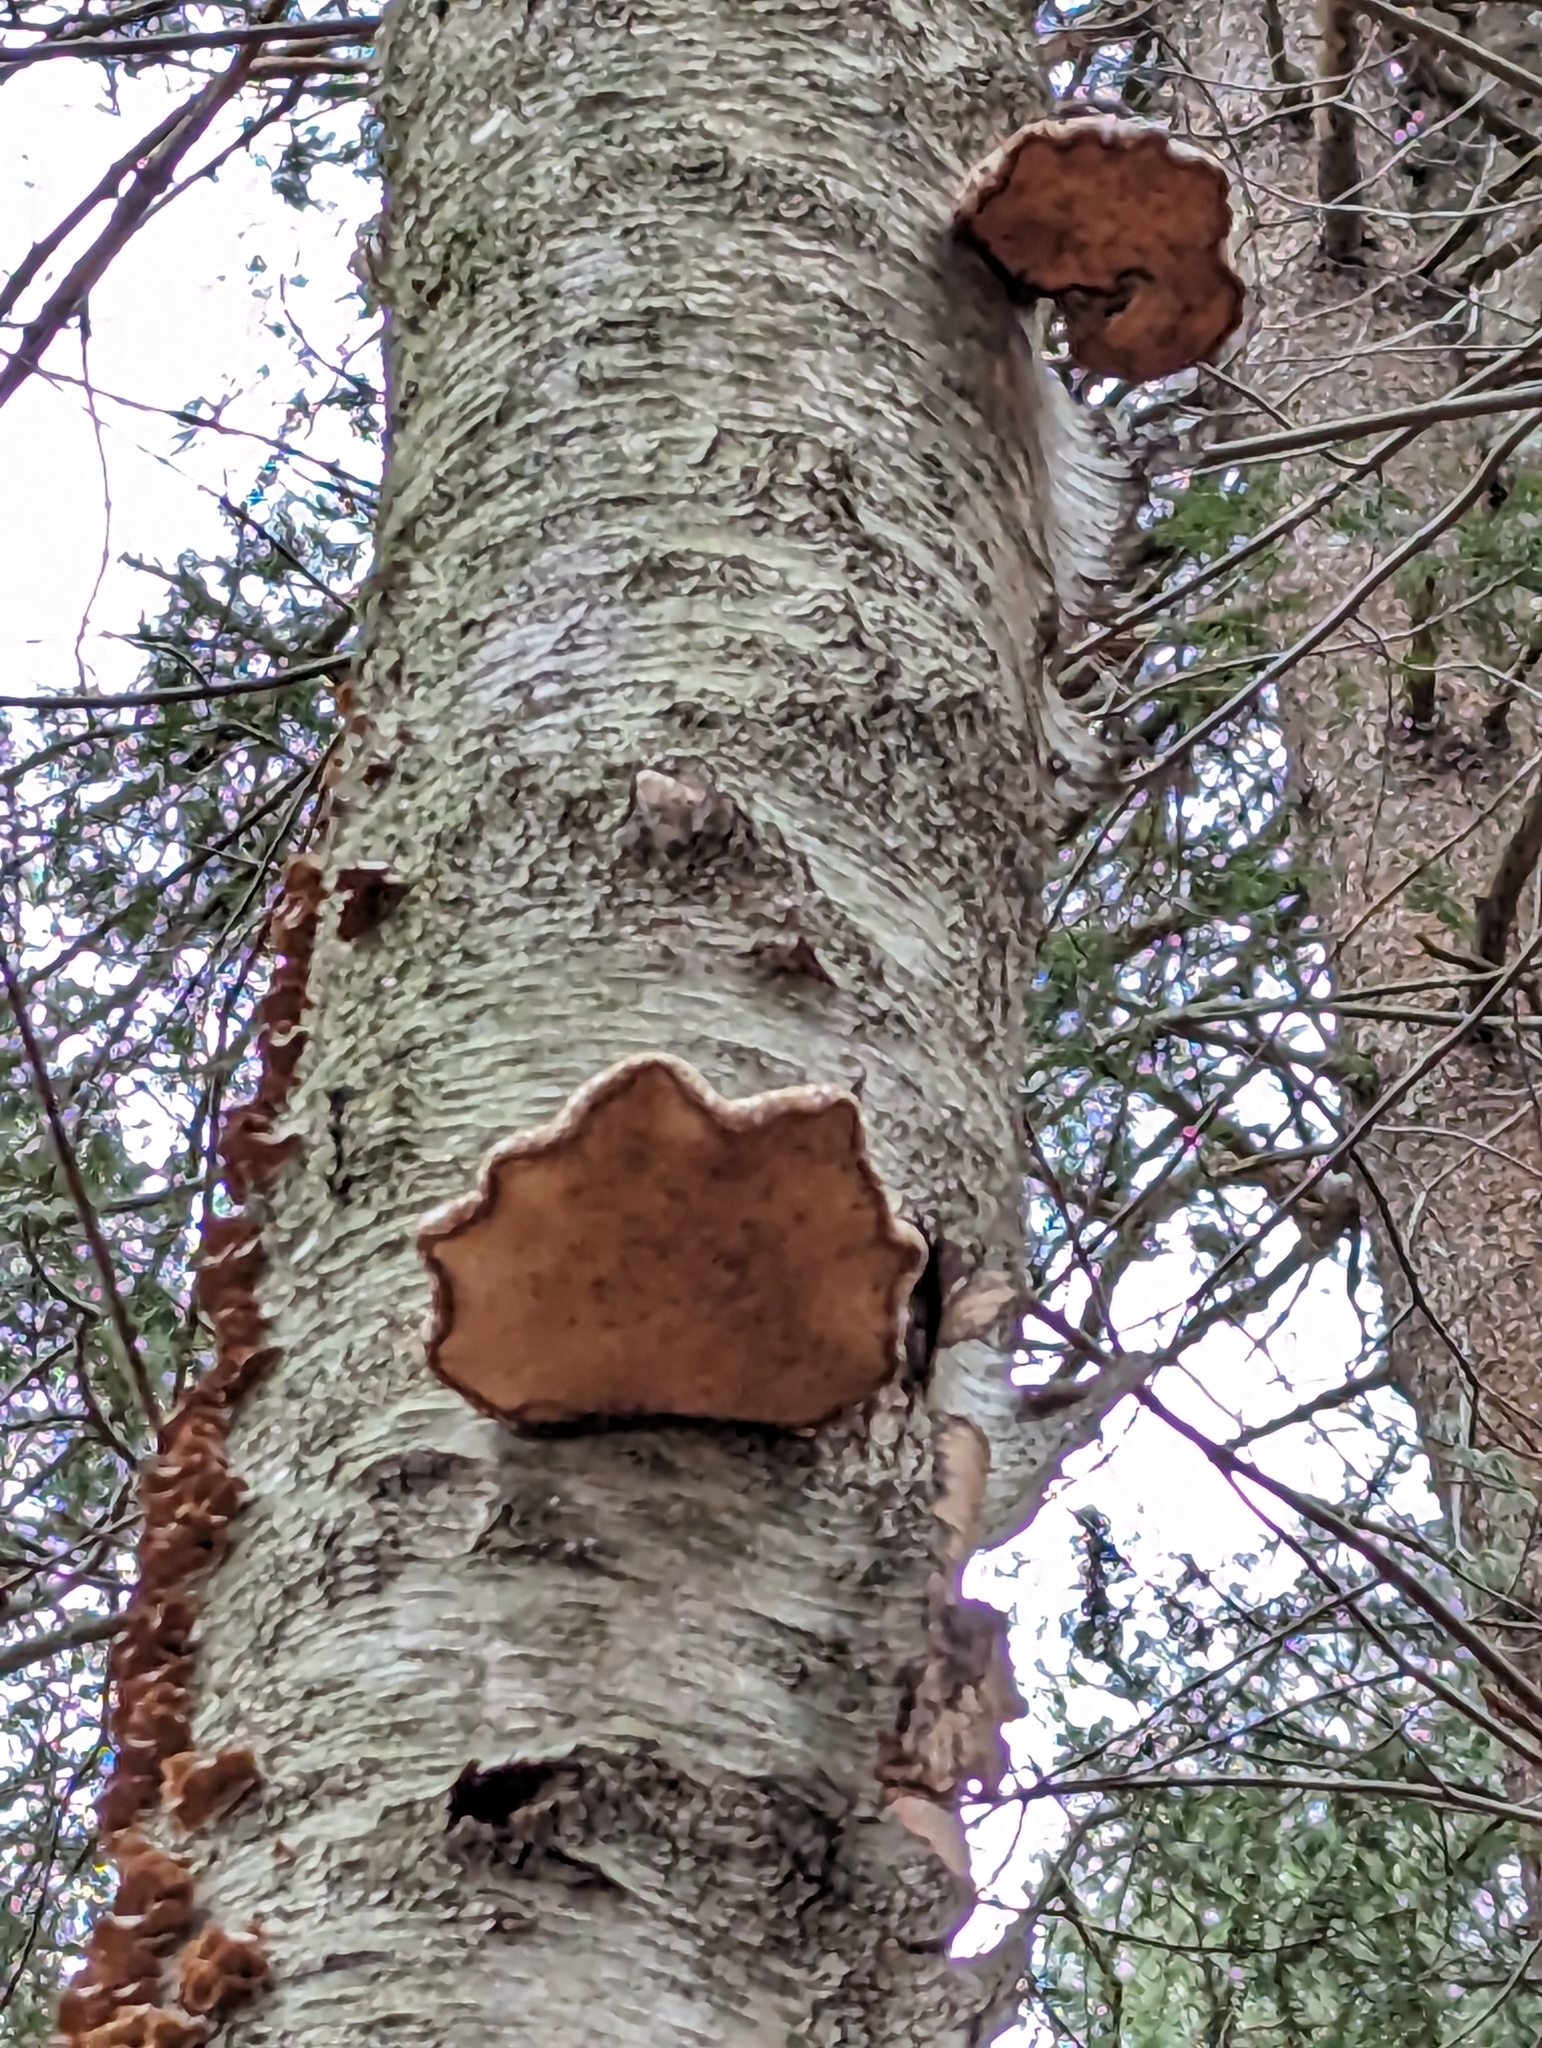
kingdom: Fungi
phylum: Basidiomycota
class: Agaricomycetes
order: Polyporales
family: Fomitopsidaceae
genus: Fomitopsis
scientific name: Fomitopsis betulina
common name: Birch polypore
